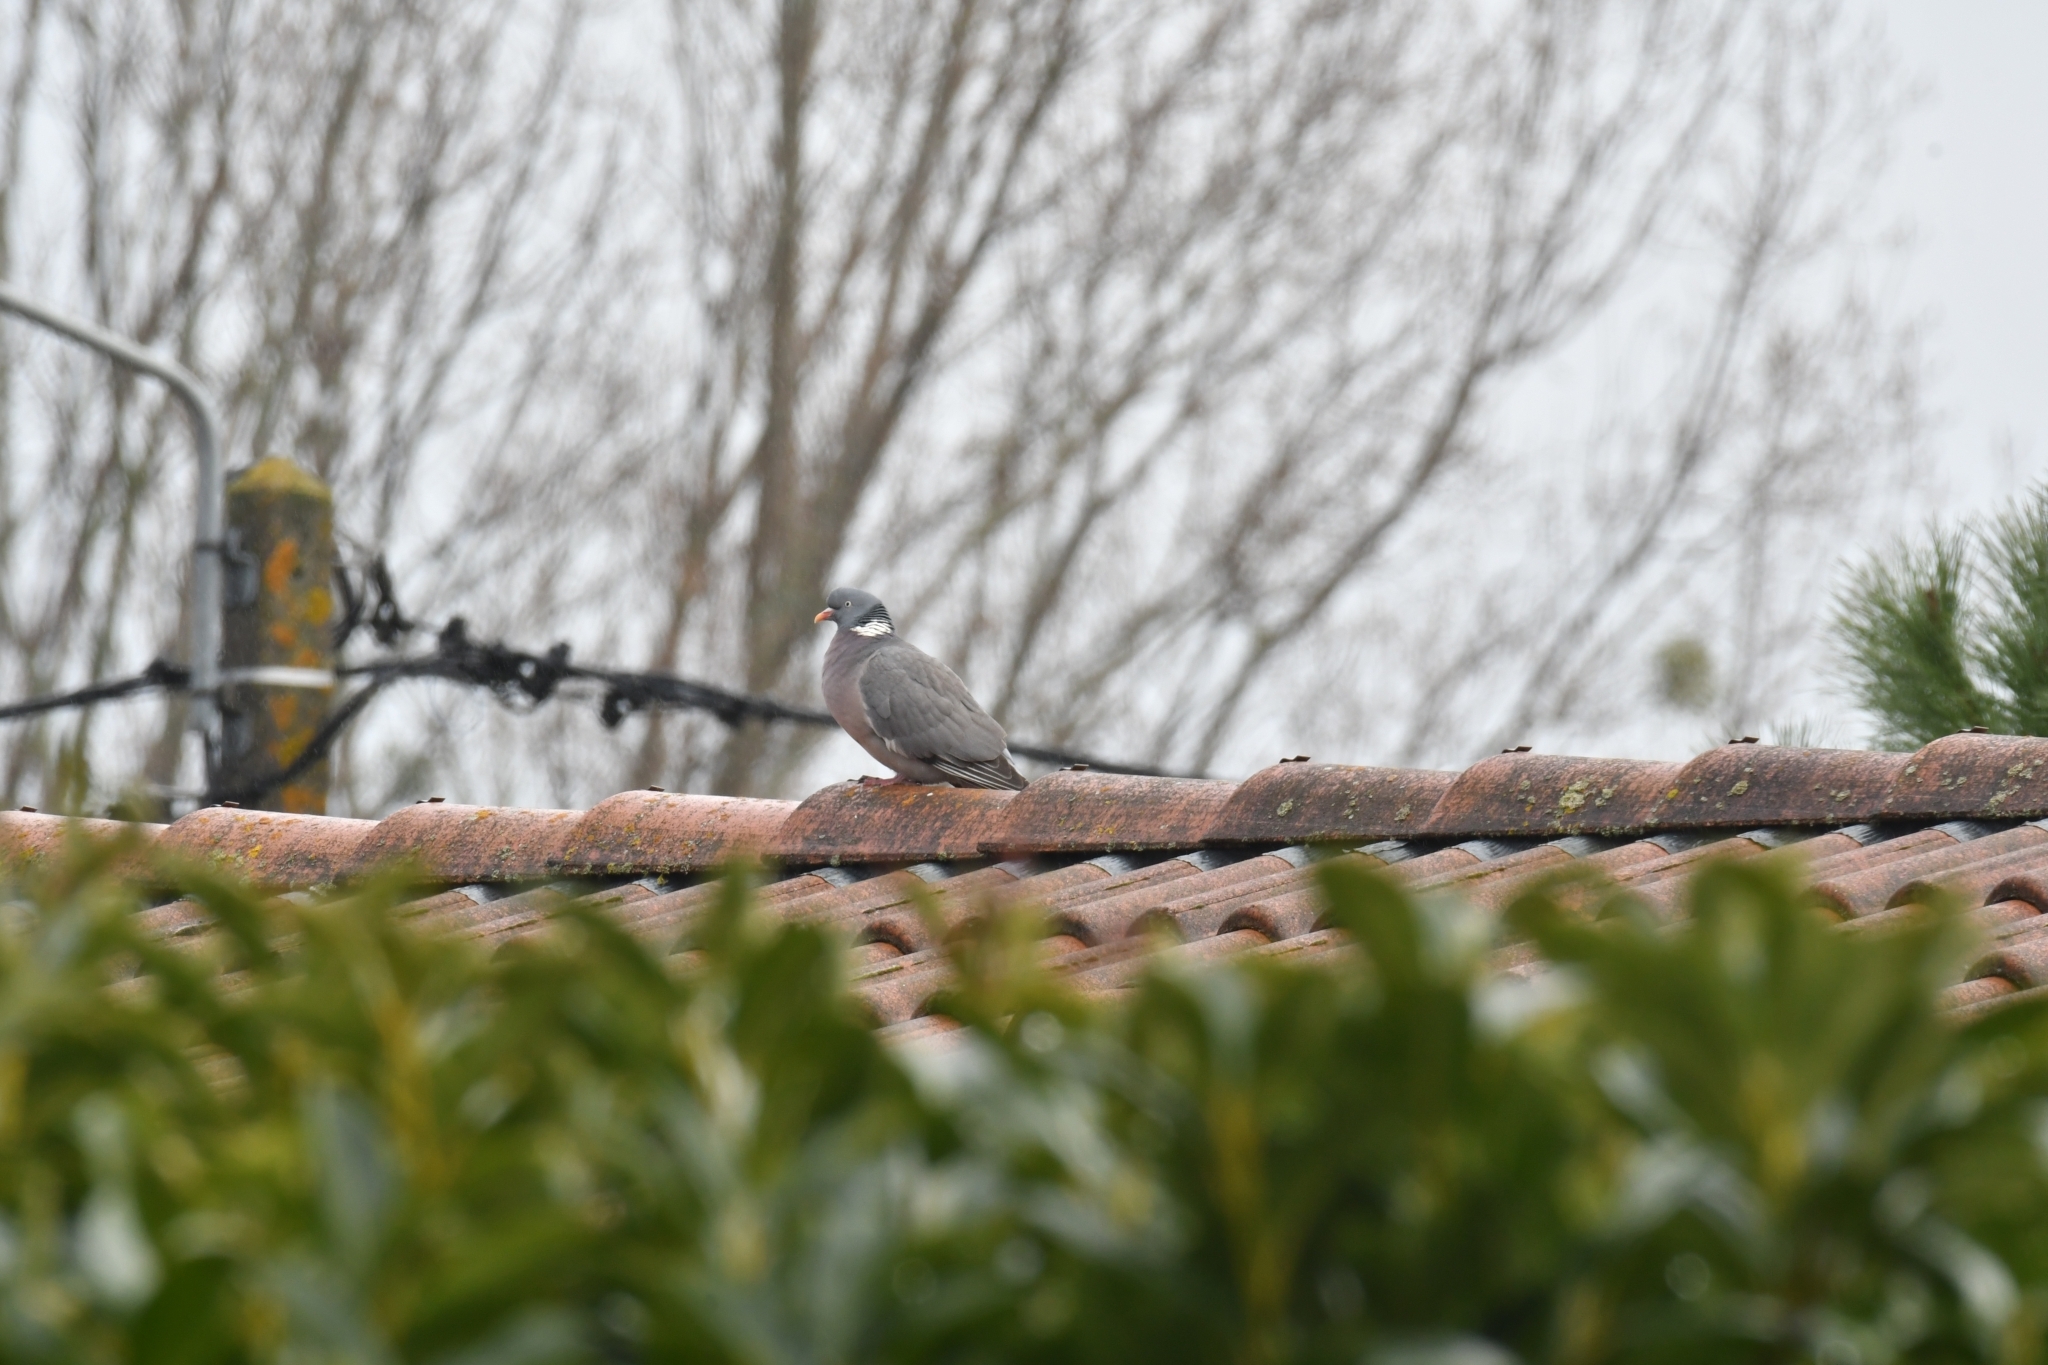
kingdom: Animalia
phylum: Chordata
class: Aves
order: Columbiformes
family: Columbidae
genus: Columba
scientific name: Columba palumbus
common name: Common wood pigeon
